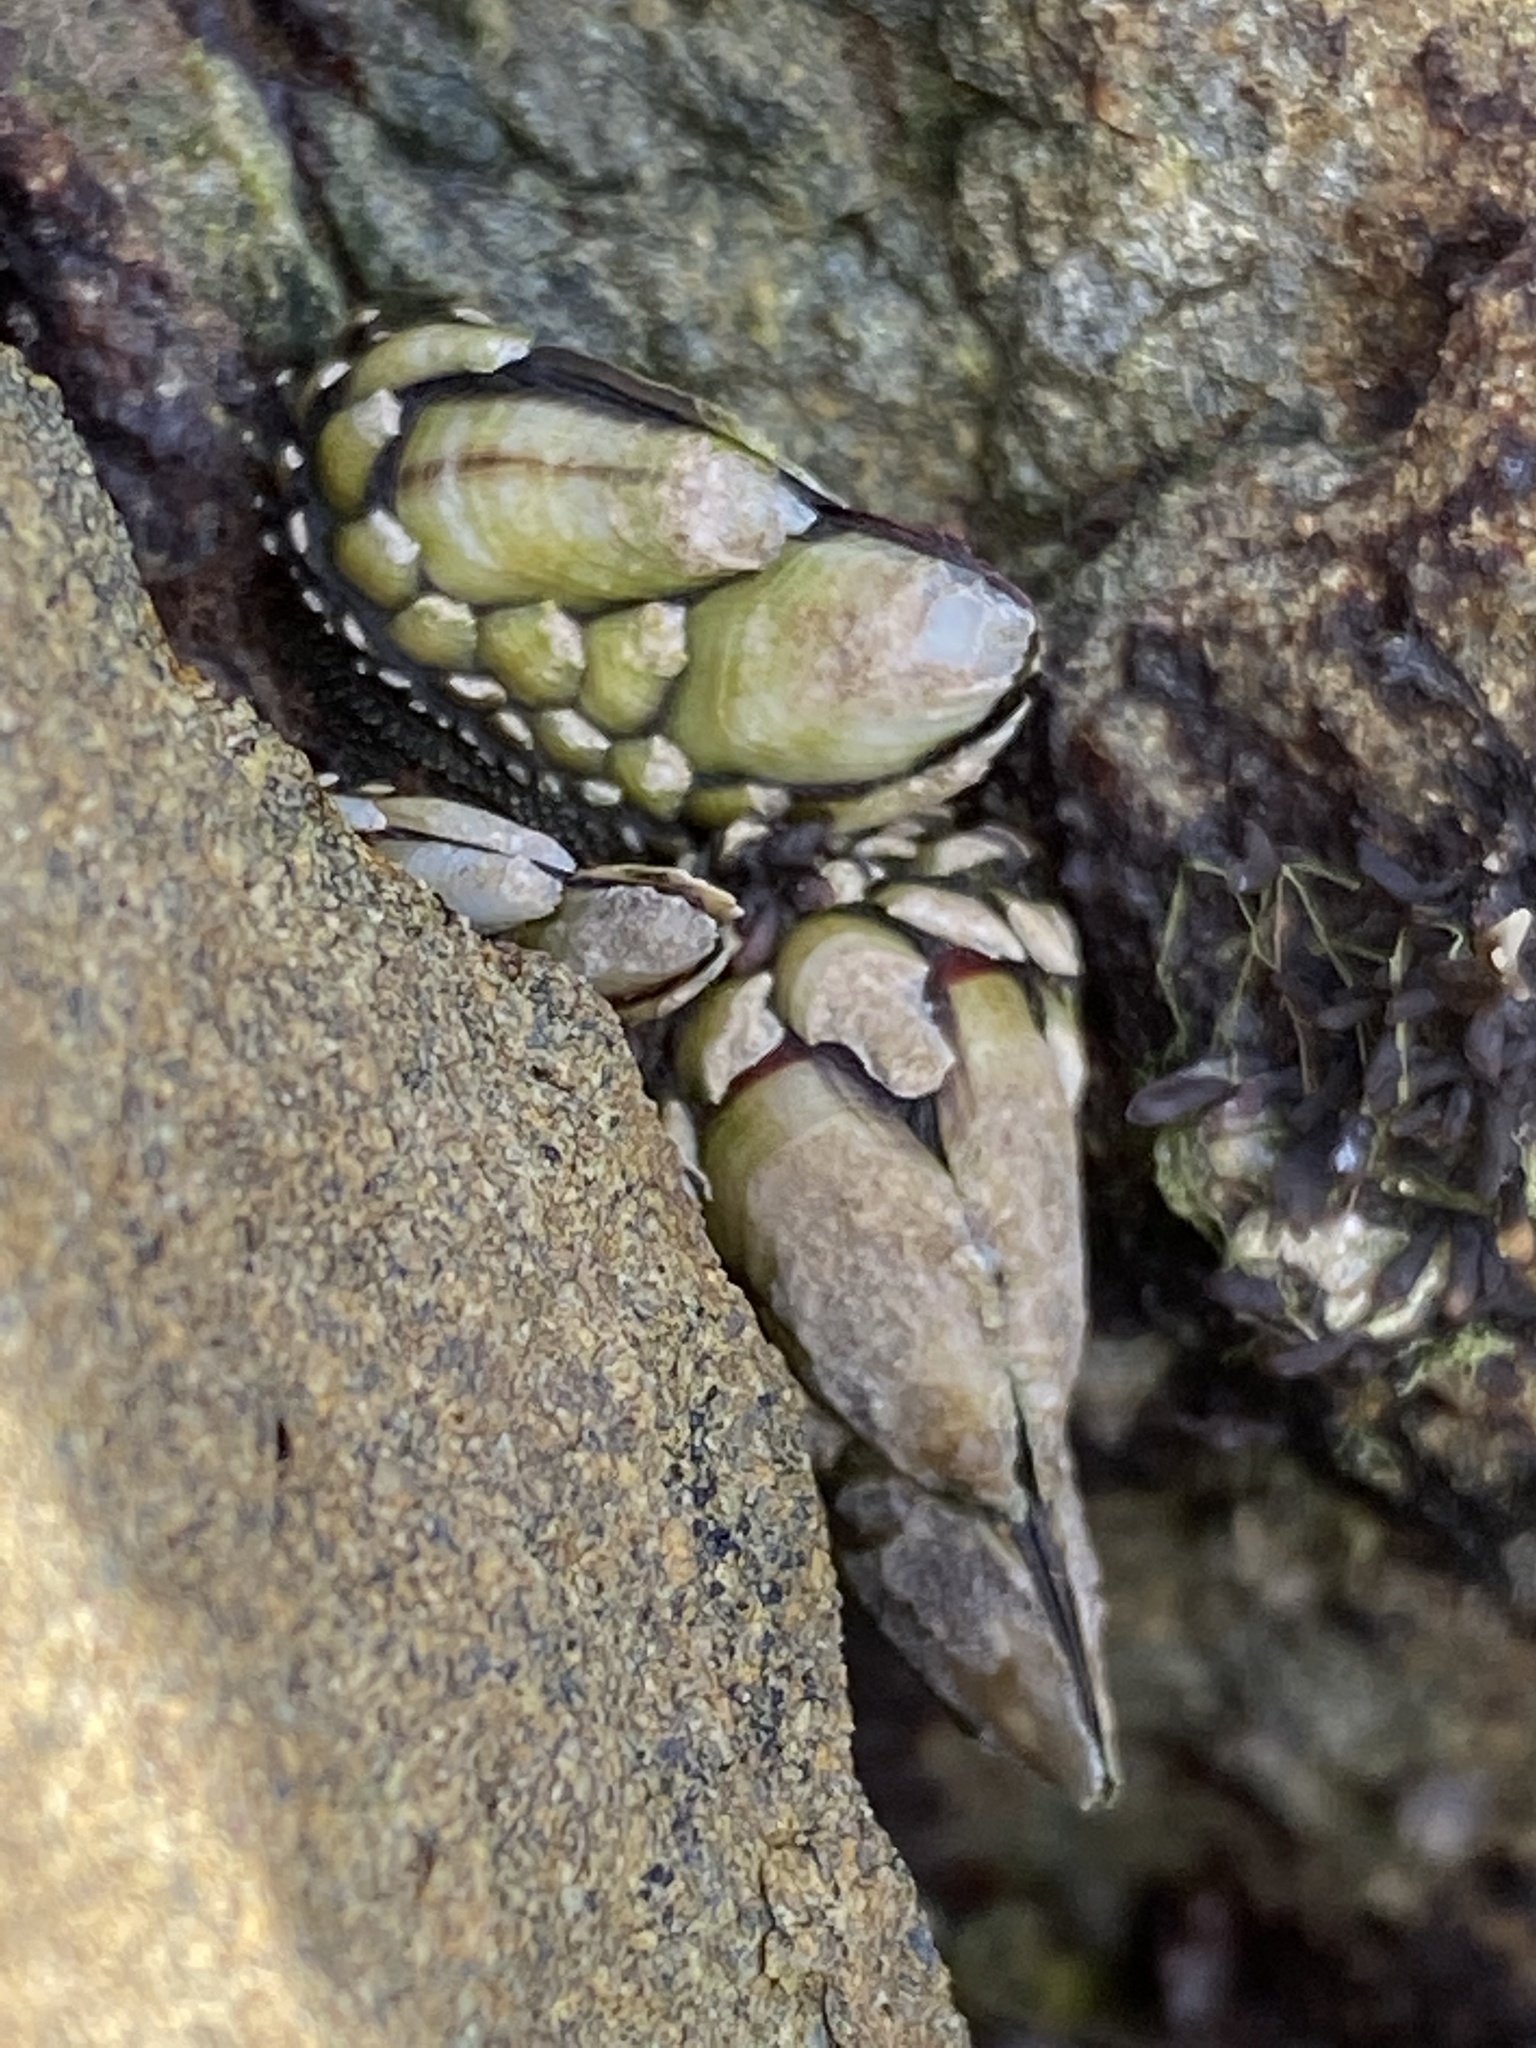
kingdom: Animalia
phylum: Arthropoda
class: Maxillopoda
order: Pedunculata
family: Pollicipedidae
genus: Pollicipes
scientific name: Pollicipes polymerus
